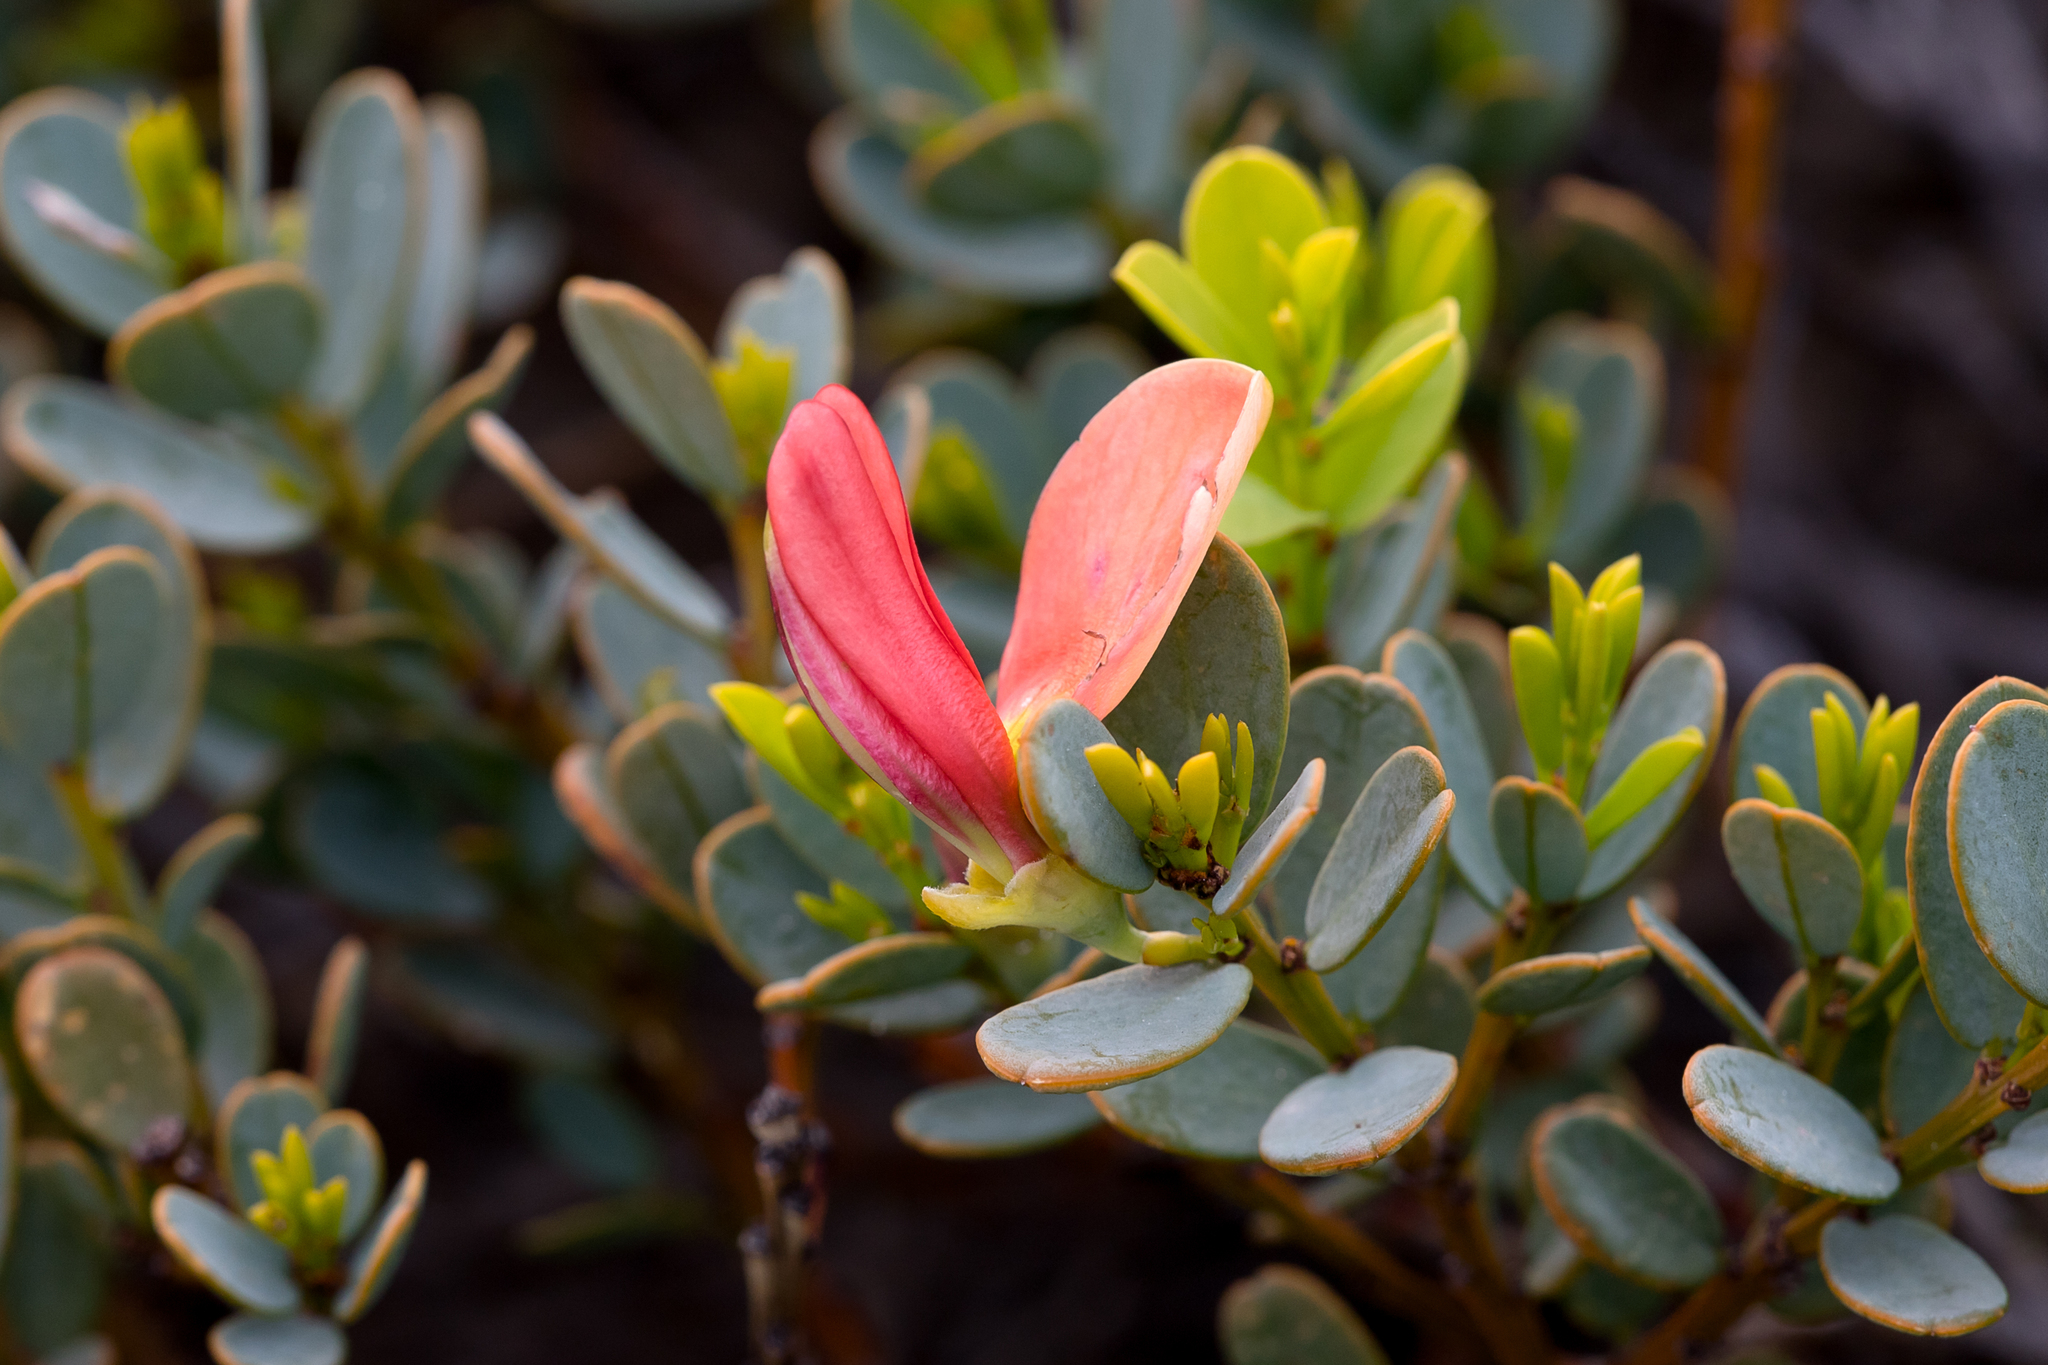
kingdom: Plantae
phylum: Tracheophyta
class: Magnoliopsida
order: Fabales
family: Fabaceae
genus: Templetonia
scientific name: Templetonia retusa
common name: Cockies'-tongue
